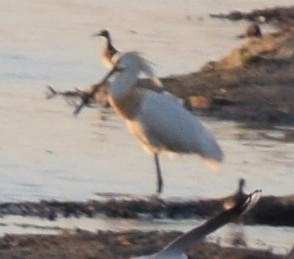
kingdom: Animalia
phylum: Chordata
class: Aves
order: Pelecaniformes
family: Threskiornithidae
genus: Platalea
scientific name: Platalea leucorodia
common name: Eurasian spoonbill
